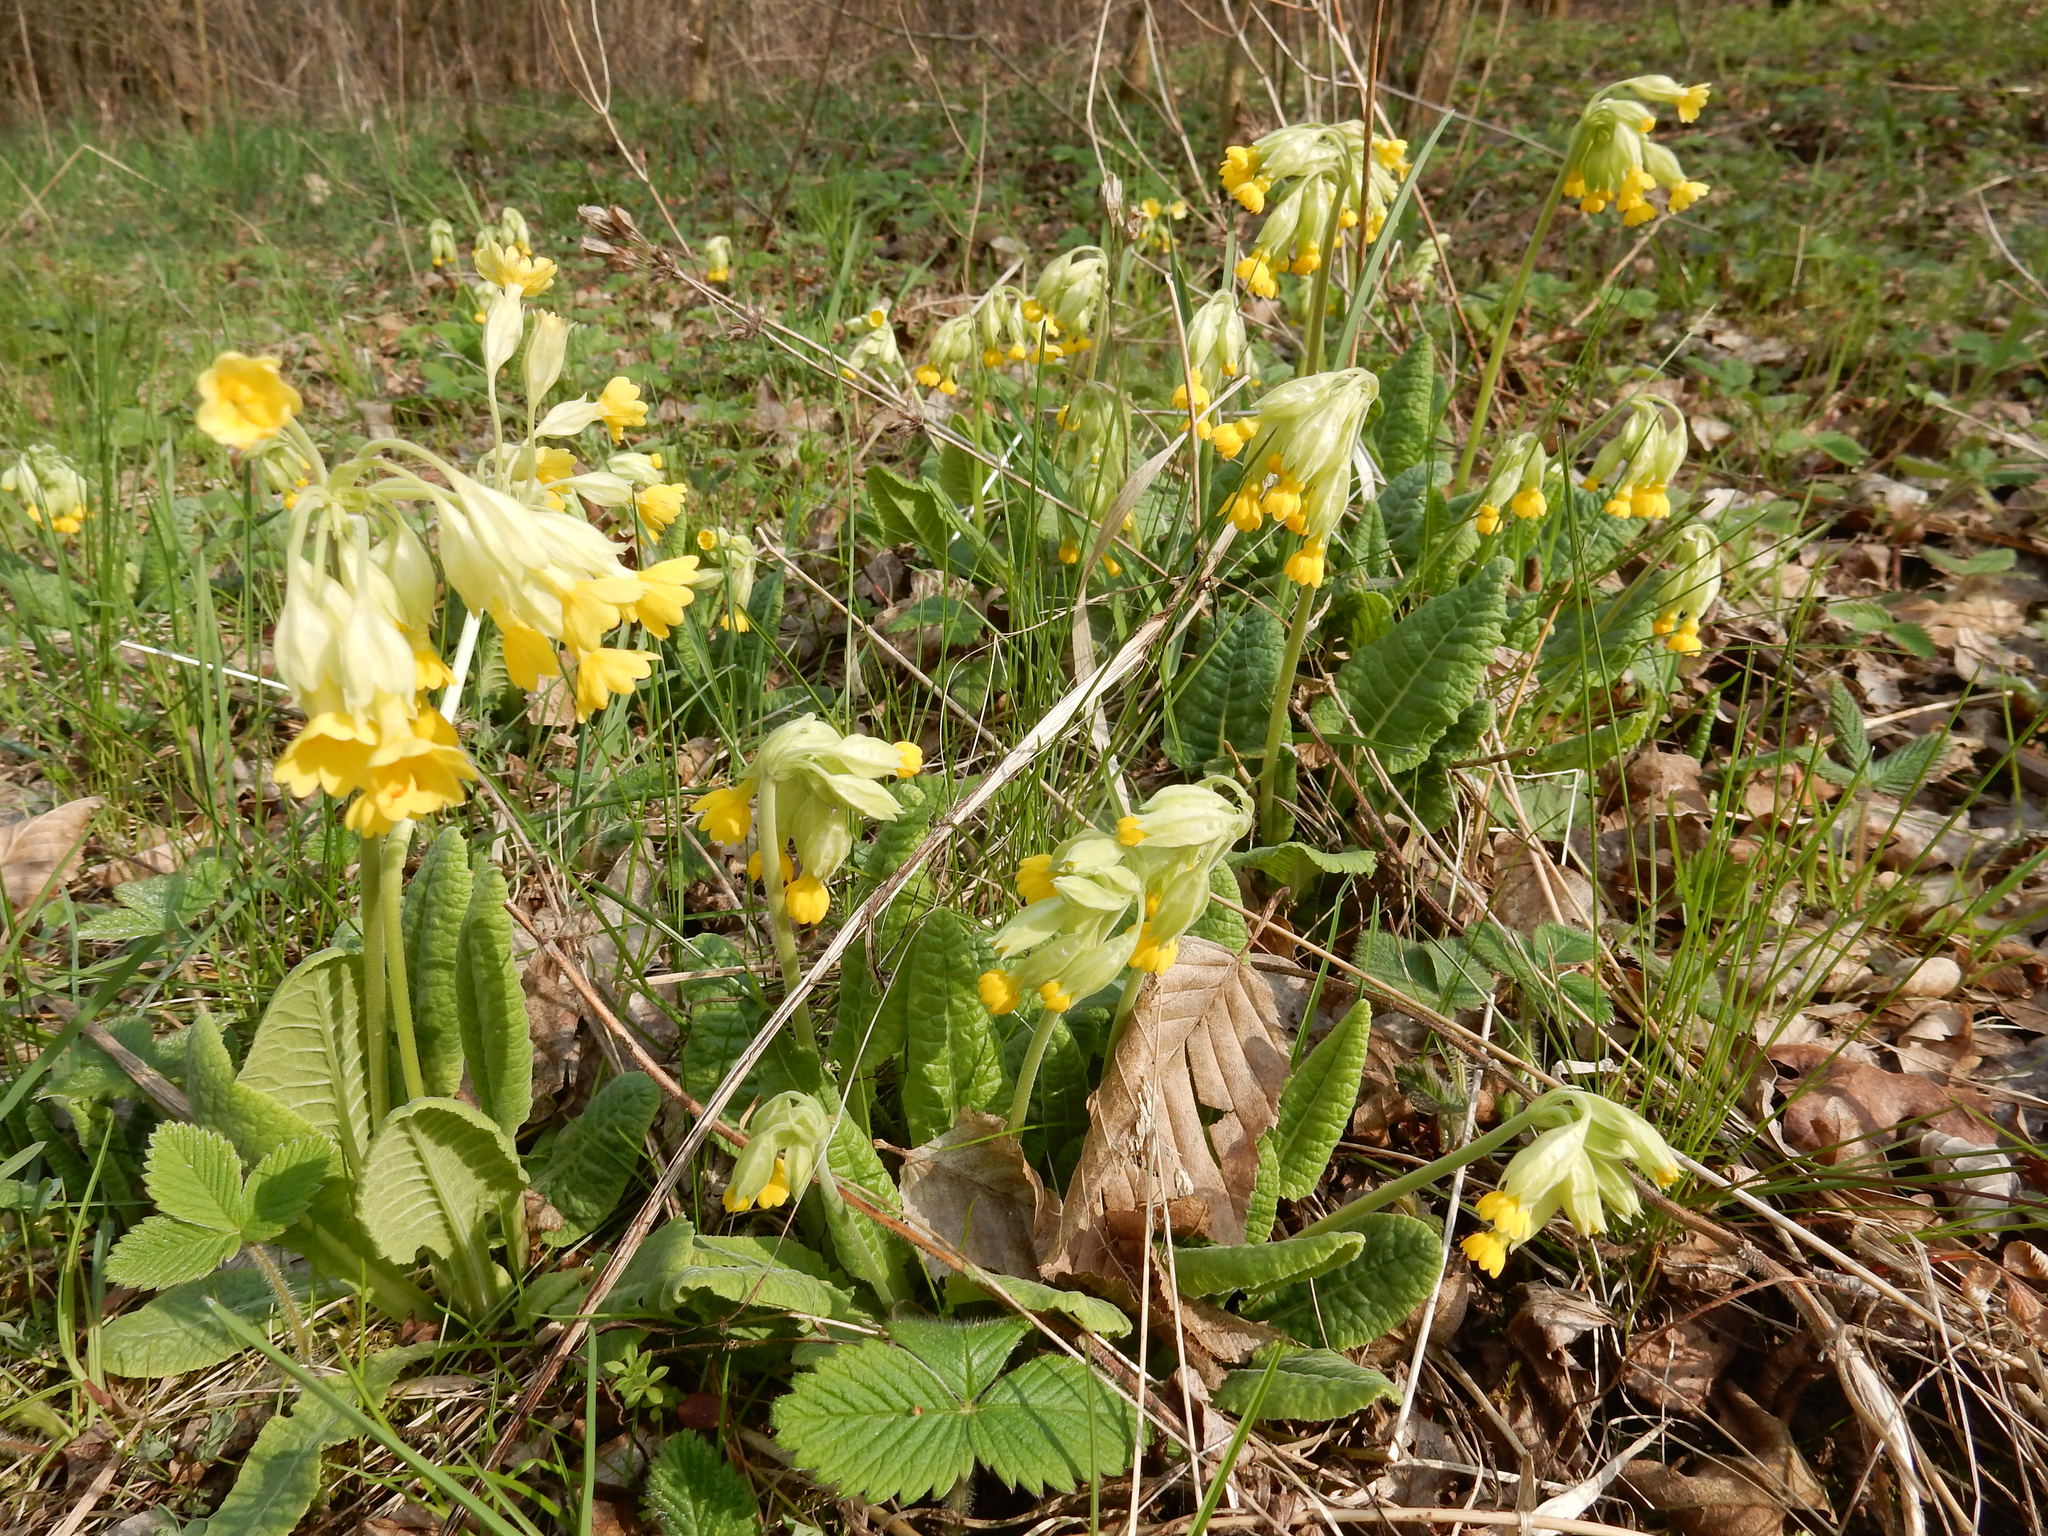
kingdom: Plantae
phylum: Tracheophyta
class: Magnoliopsida
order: Ericales
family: Primulaceae
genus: Primula
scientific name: Primula veris
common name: Cowslip
